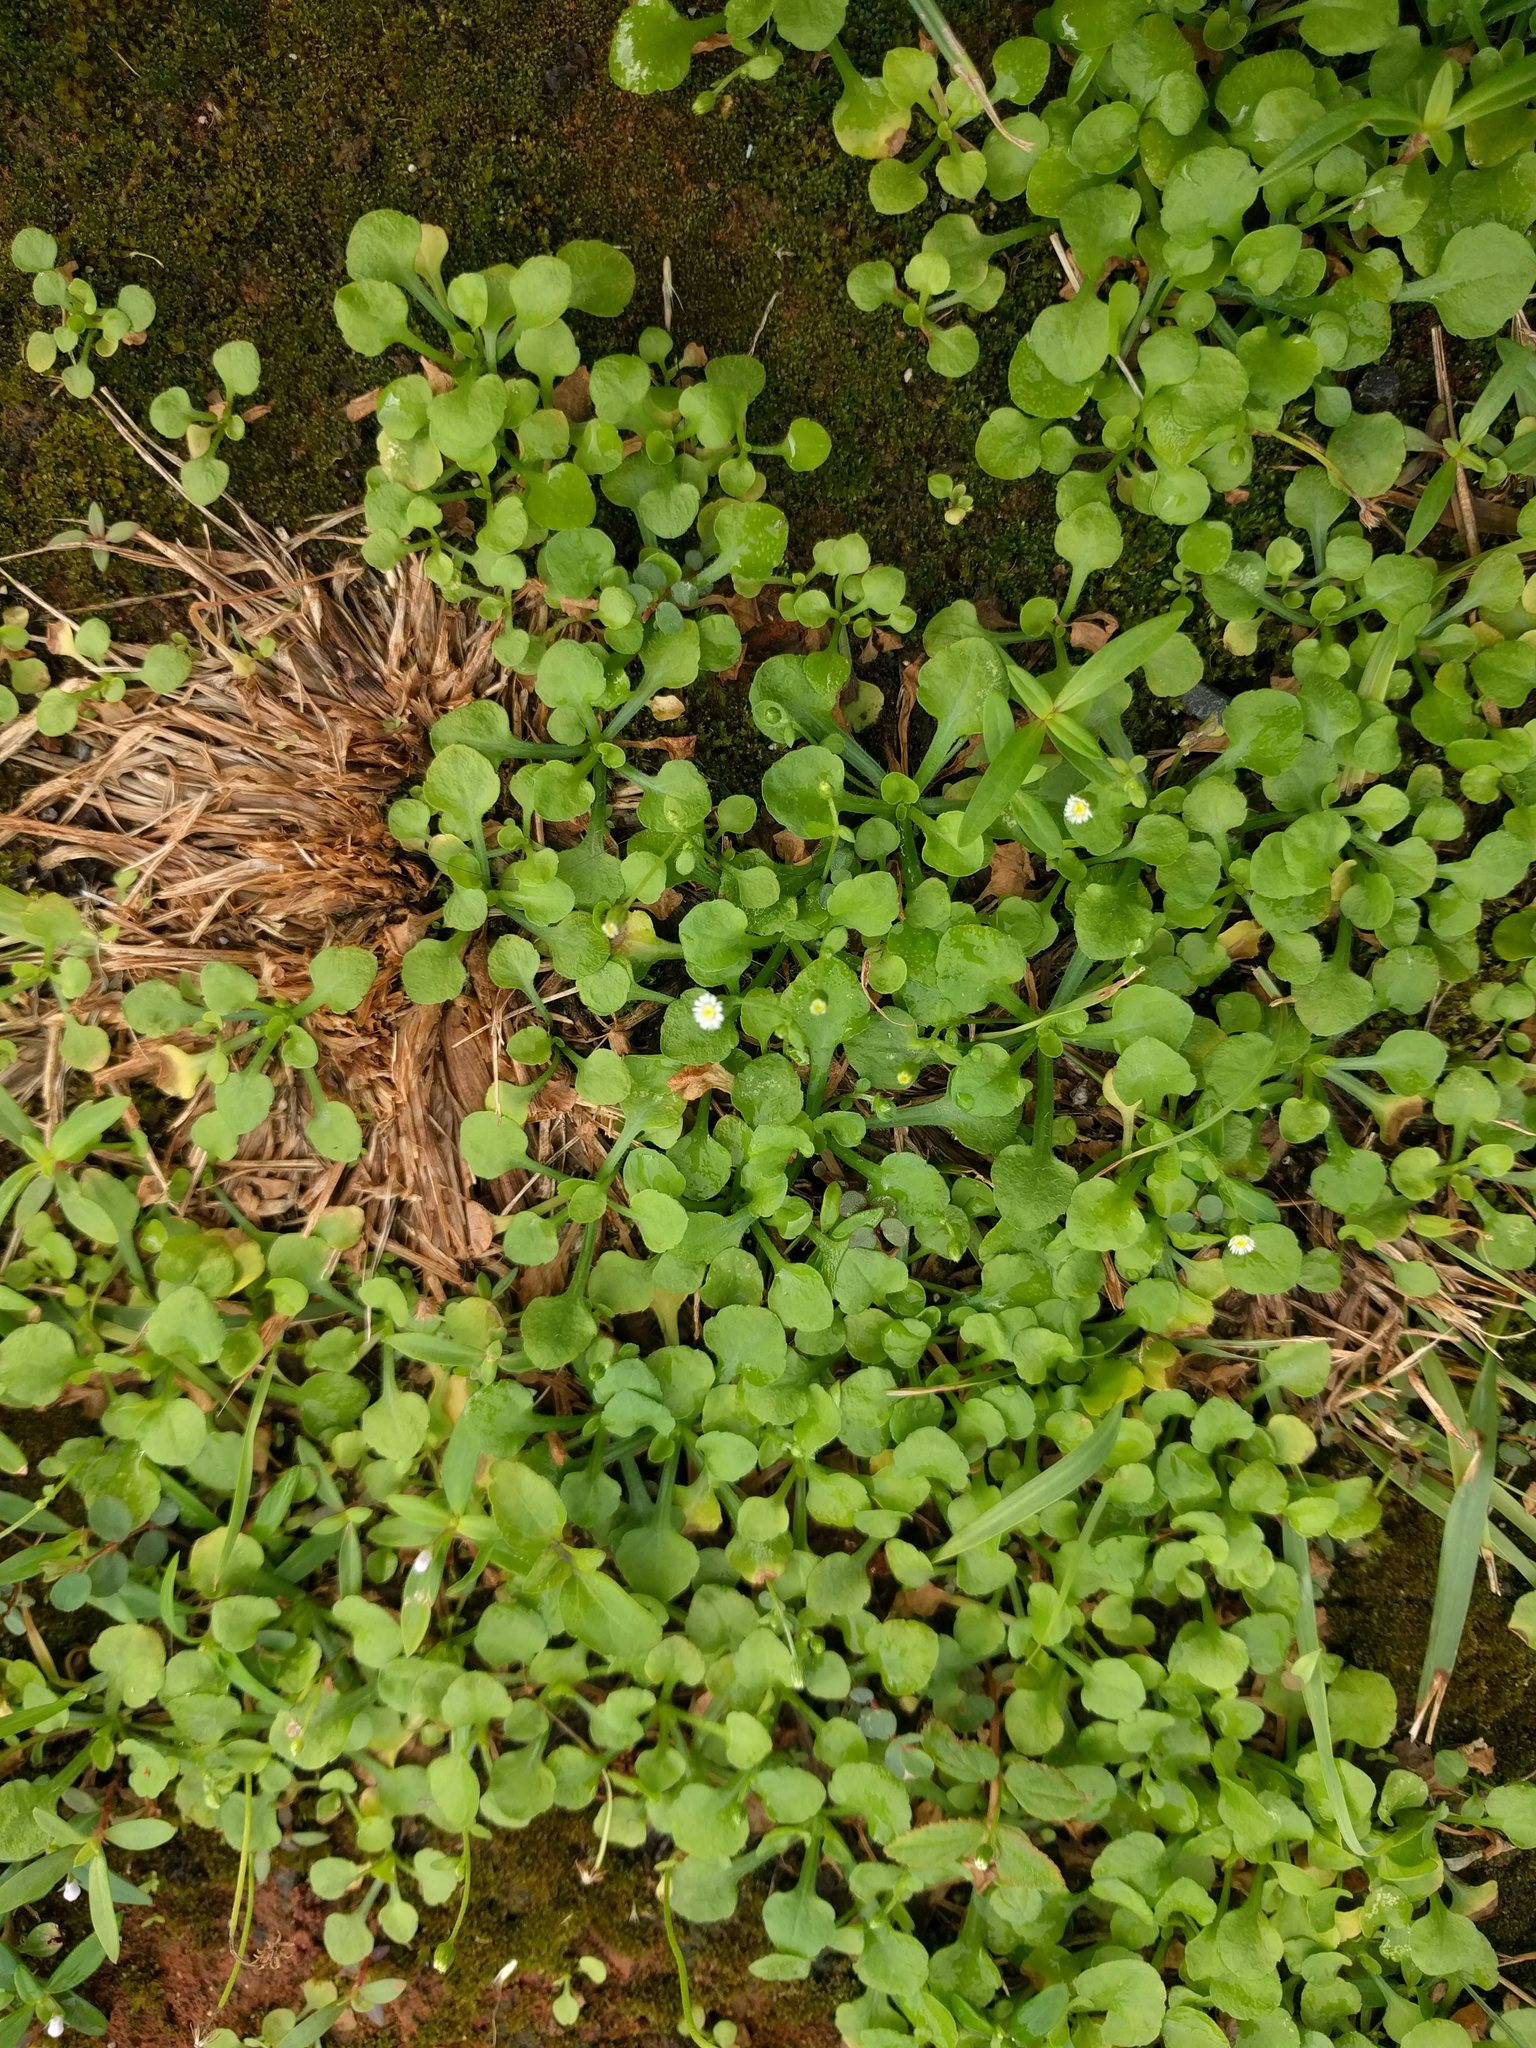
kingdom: Plantae
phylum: Tracheophyta
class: Magnoliopsida
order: Asterales
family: Asteraceae
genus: Erigeron
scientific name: Erigeron bellioides
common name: Bellorita
